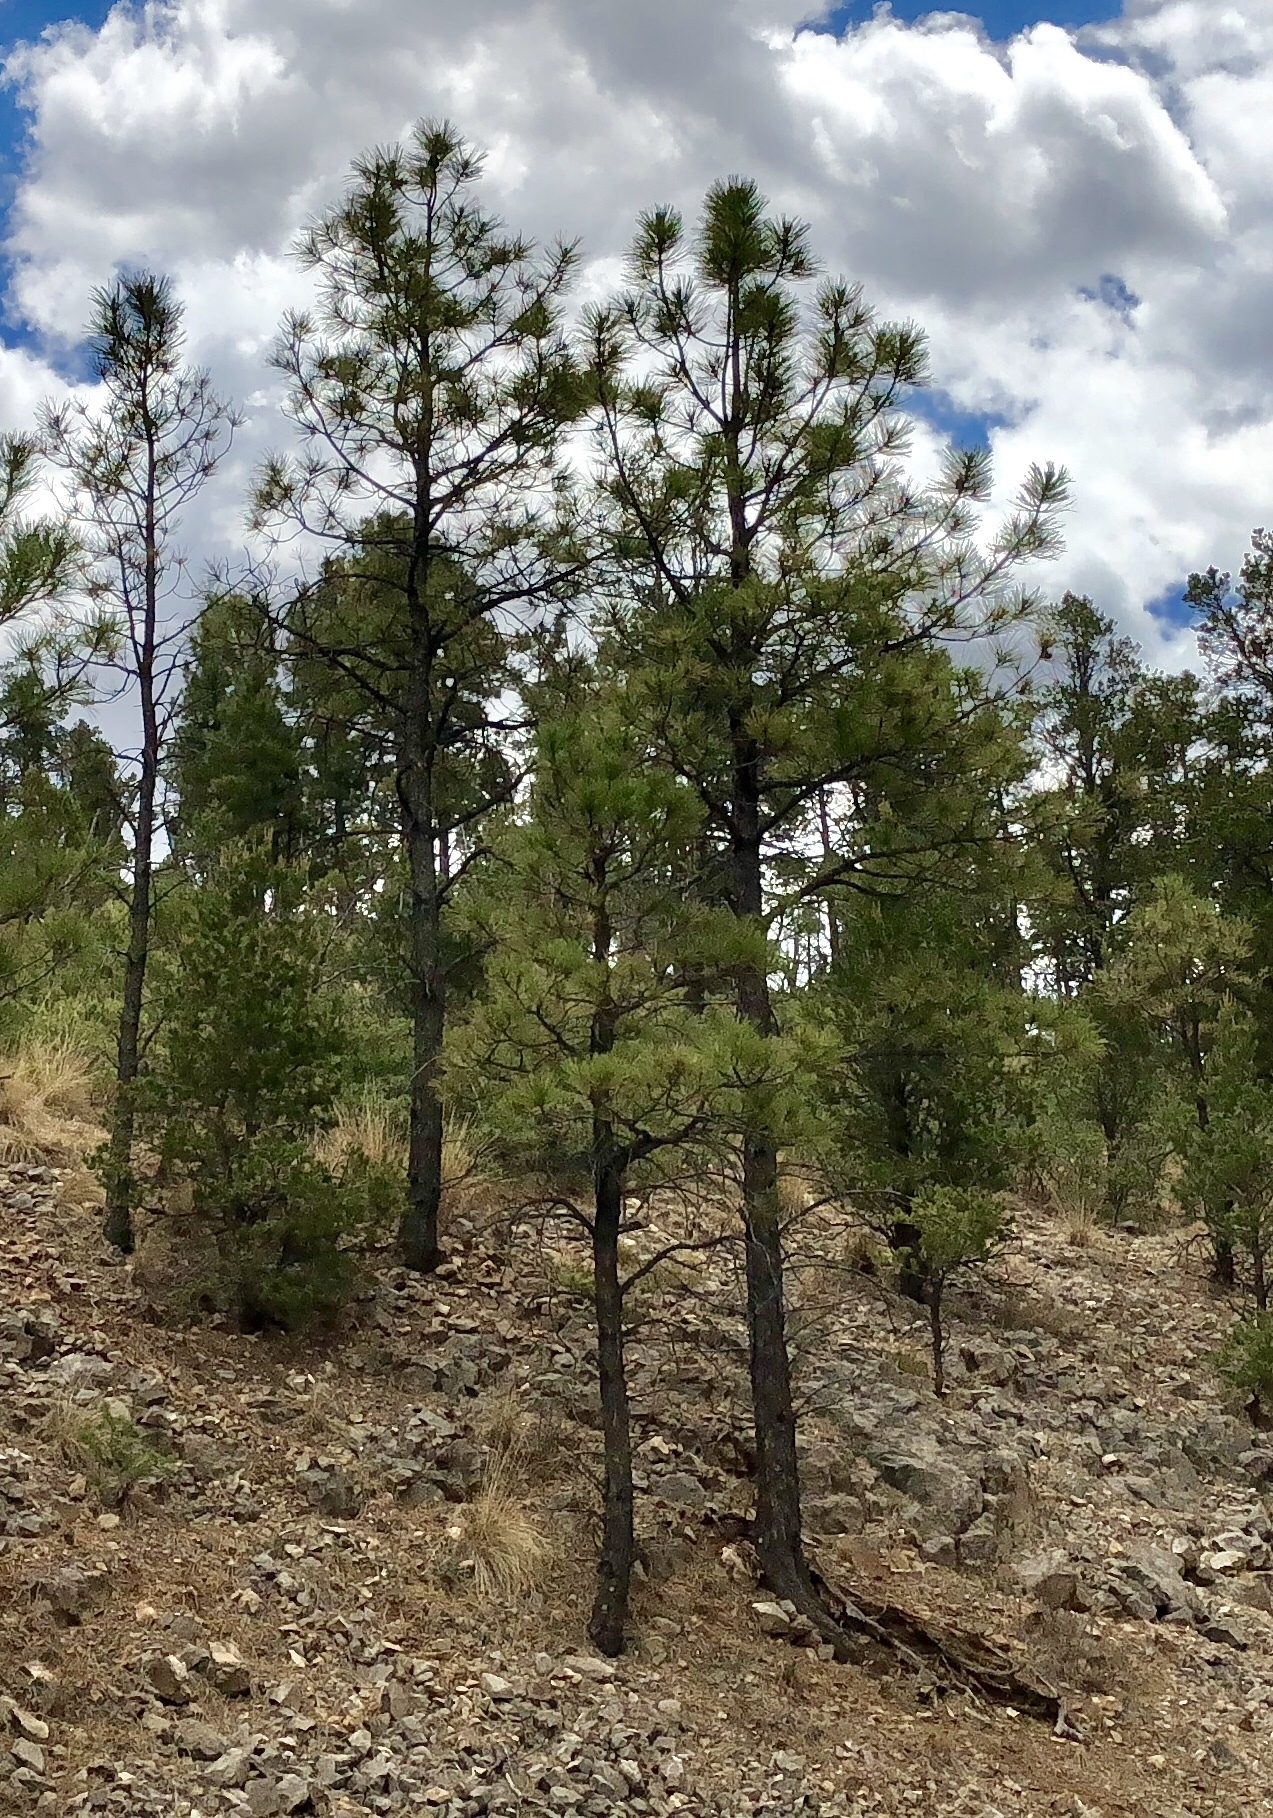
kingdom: Plantae
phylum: Tracheophyta
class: Pinopsida
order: Pinales
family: Pinaceae
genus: Pinus
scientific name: Pinus ponderosa
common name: Western yellow-pine
